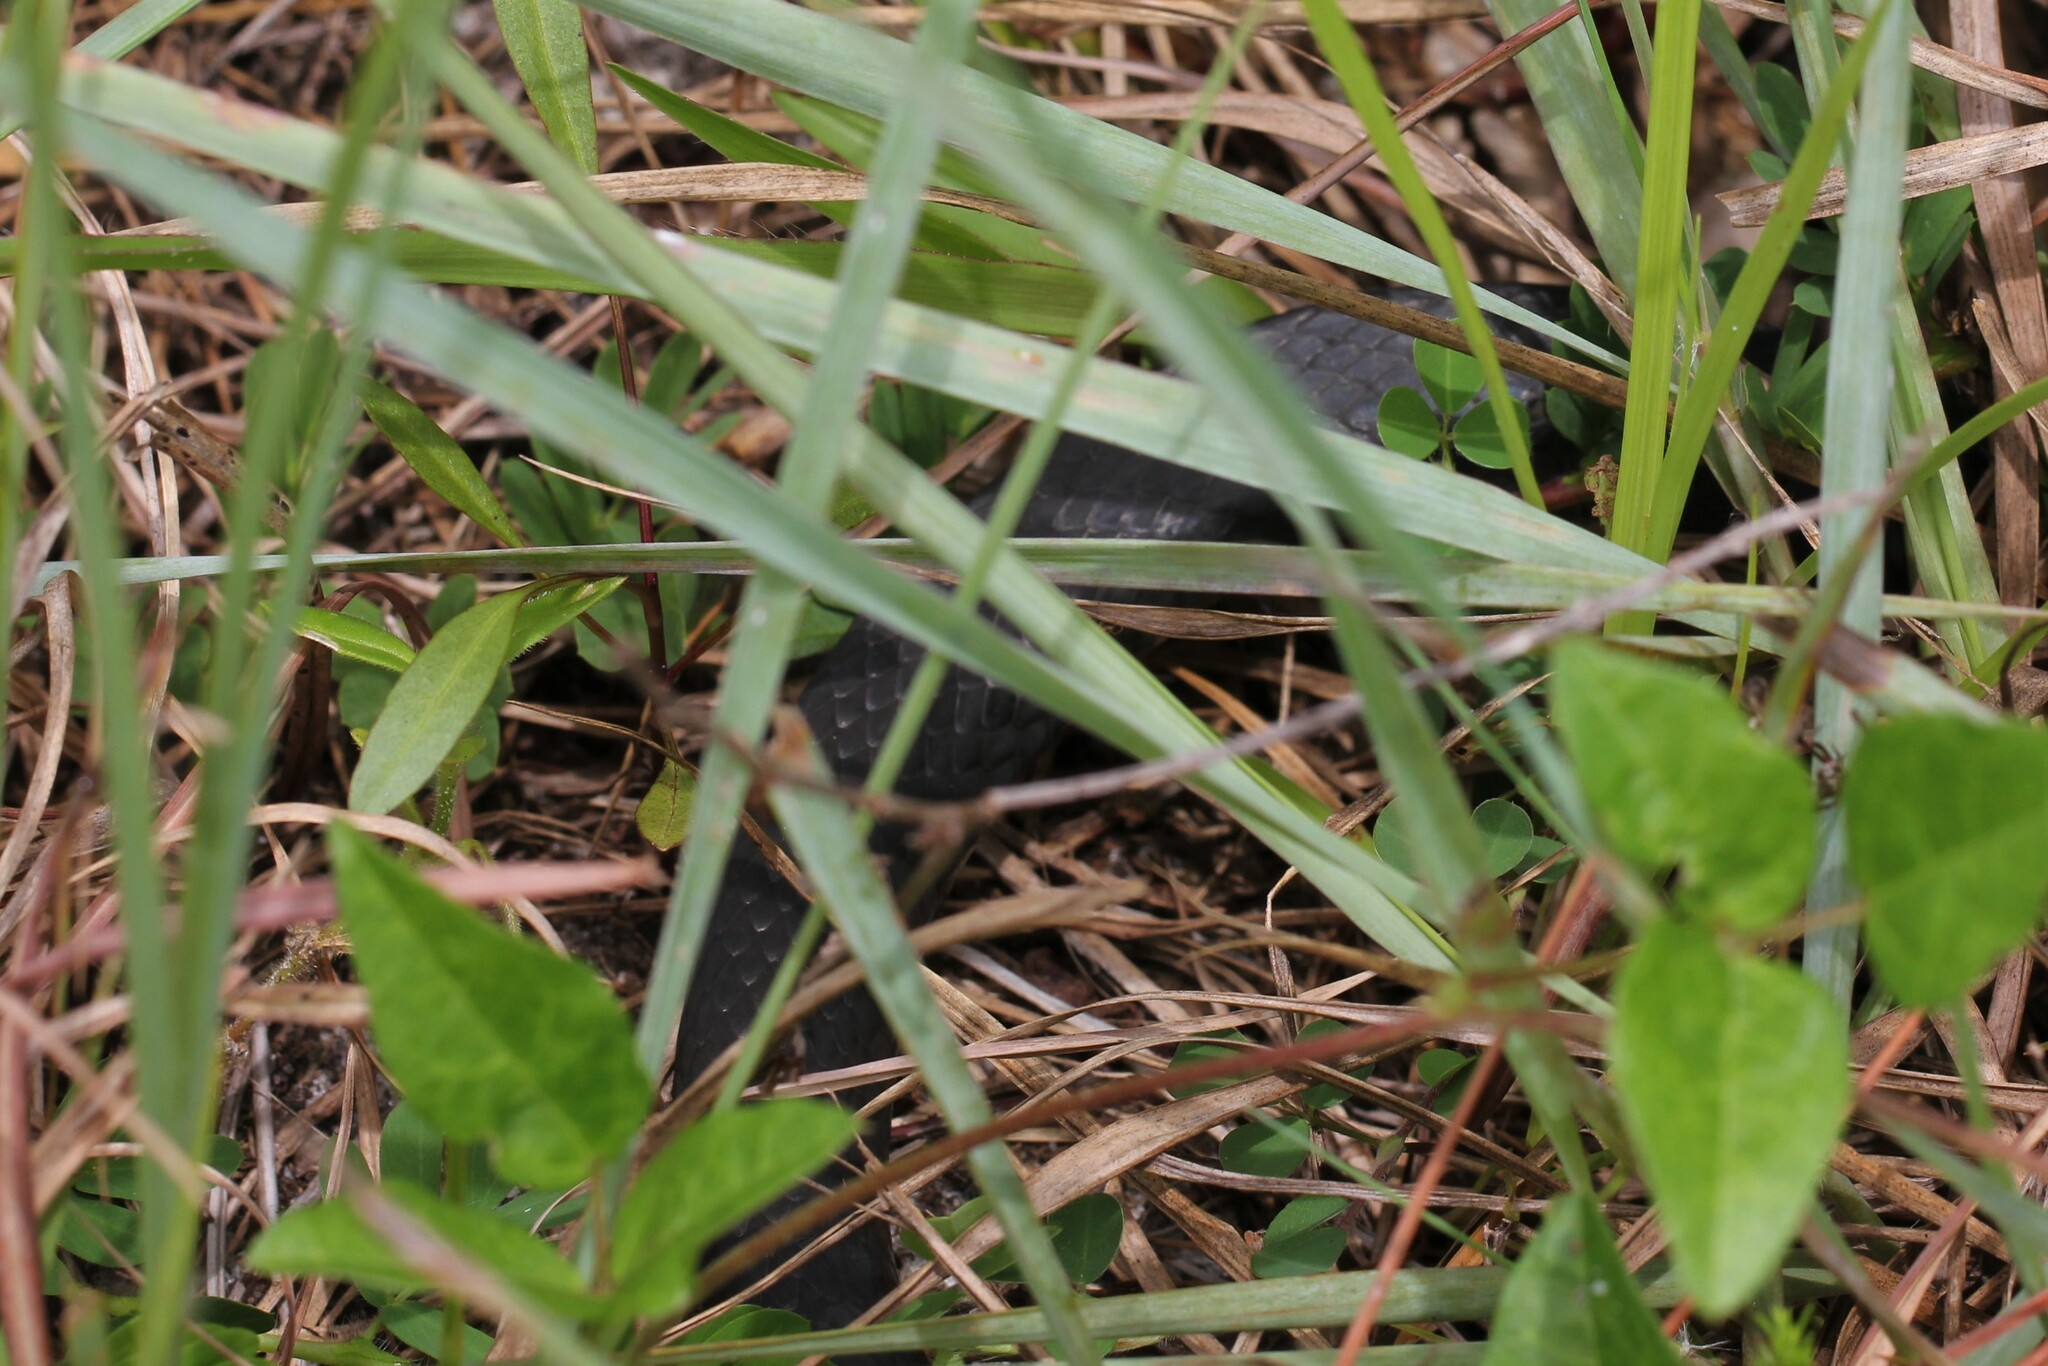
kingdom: Animalia
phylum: Chordata
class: Squamata
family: Colubridae
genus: Coluber
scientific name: Coluber constrictor
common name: Eastern racer
